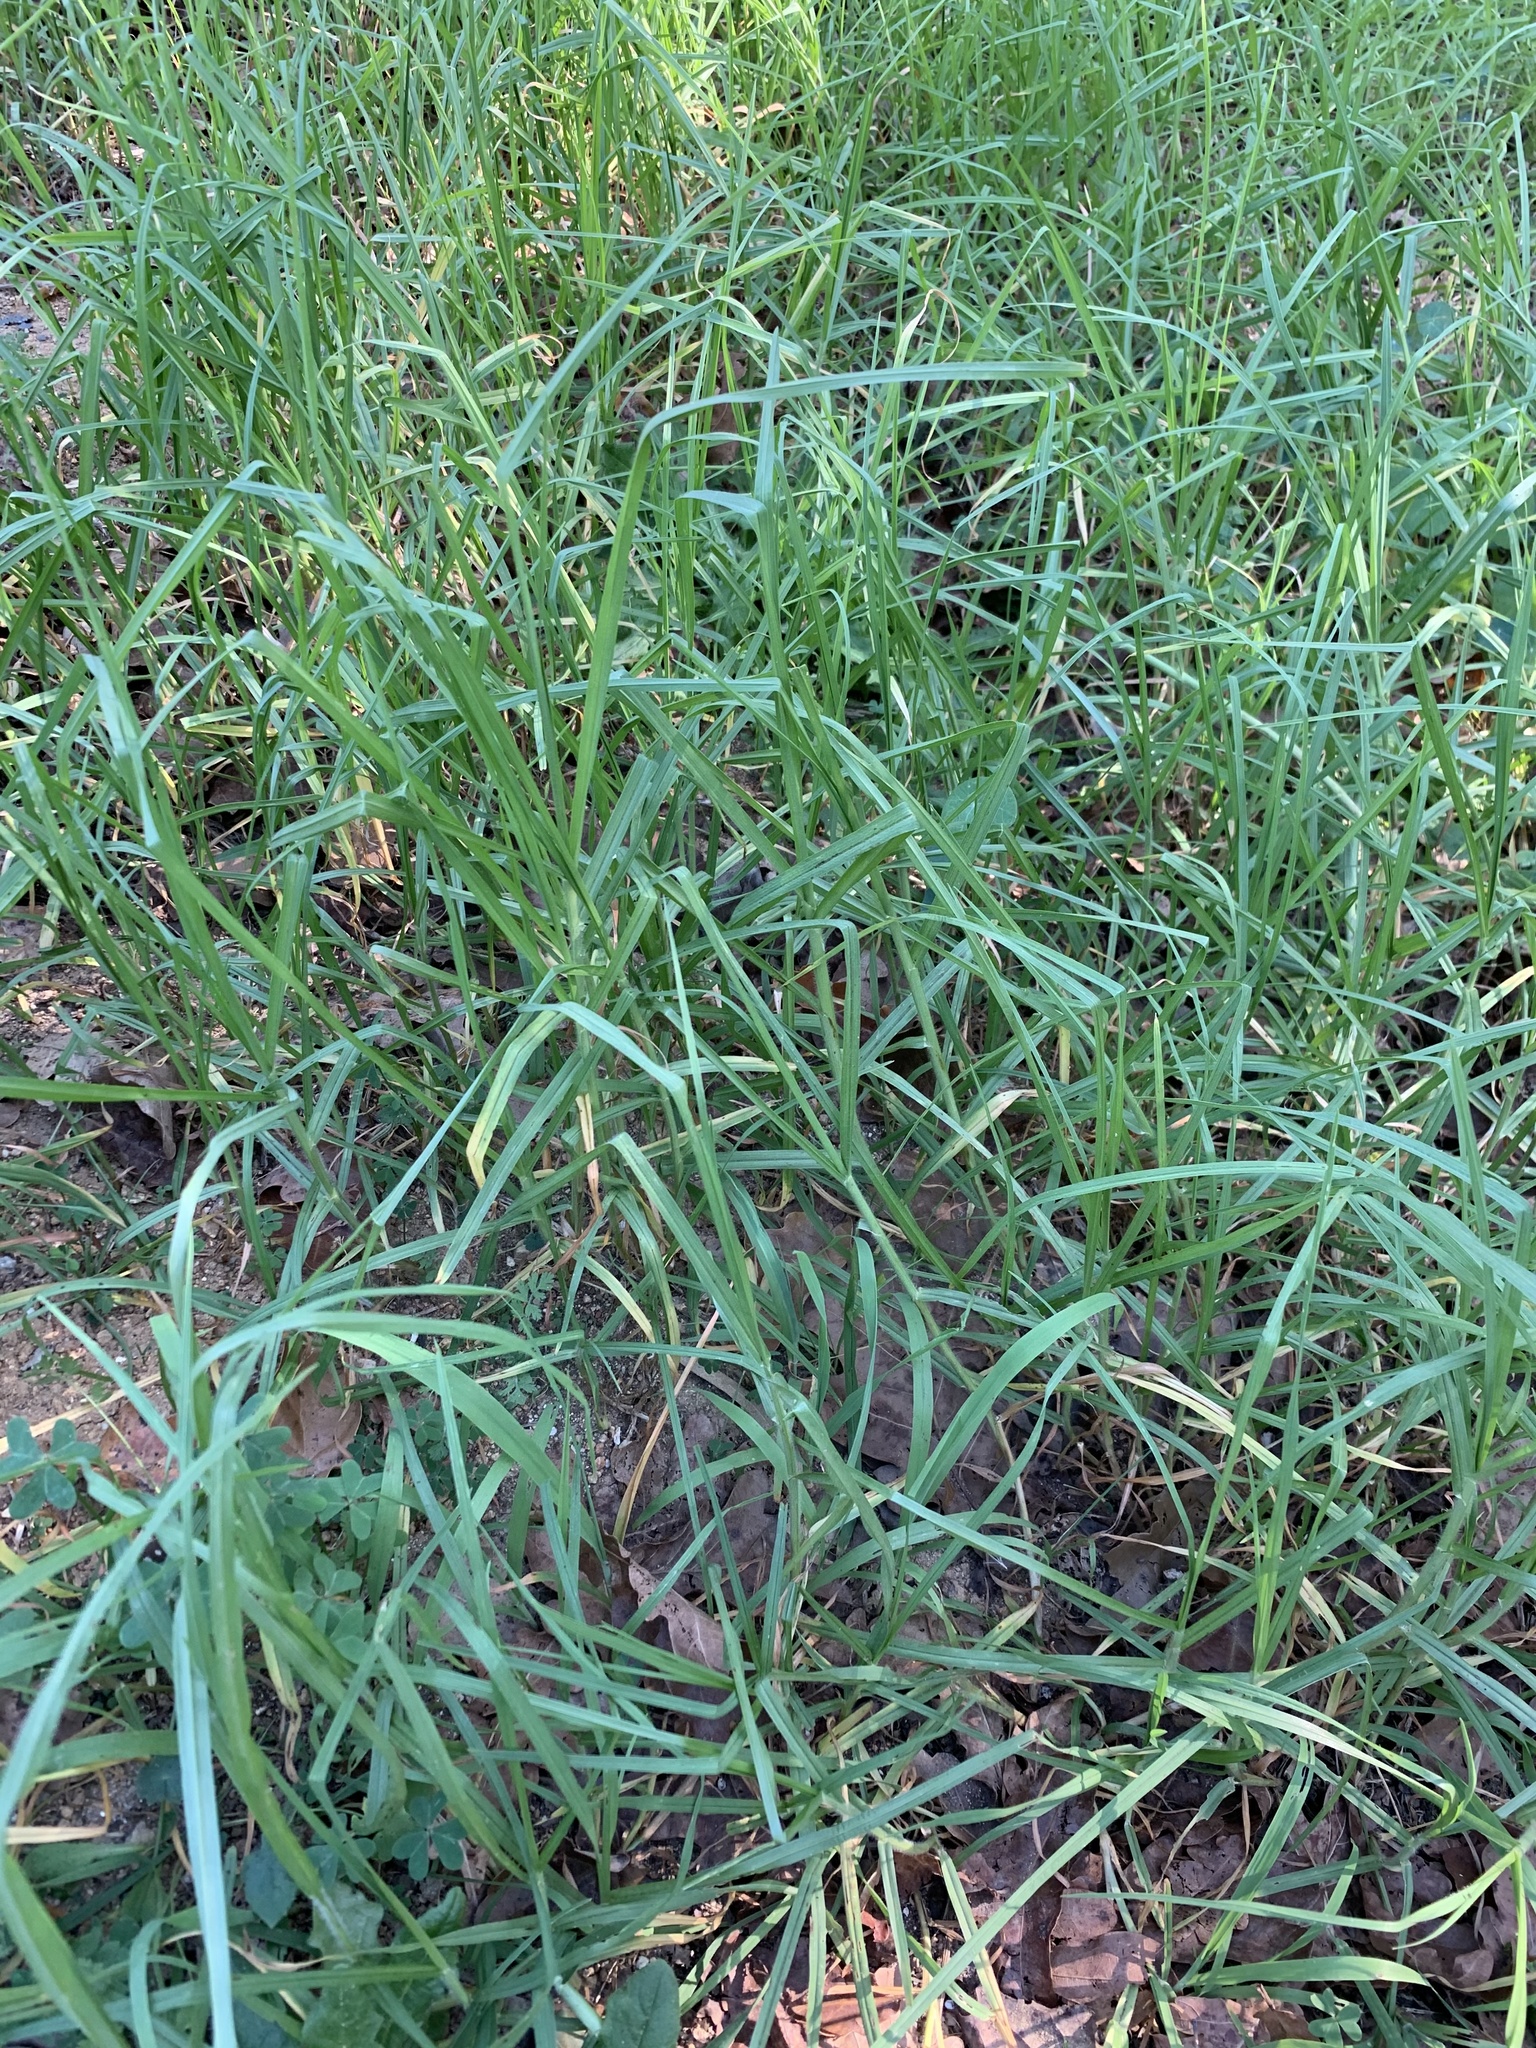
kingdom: Plantae
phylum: Tracheophyta
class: Liliopsida
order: Poales
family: Poaceae
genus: Cenchrus
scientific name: Cenchrus clandestinus
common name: Kikuyugrass
